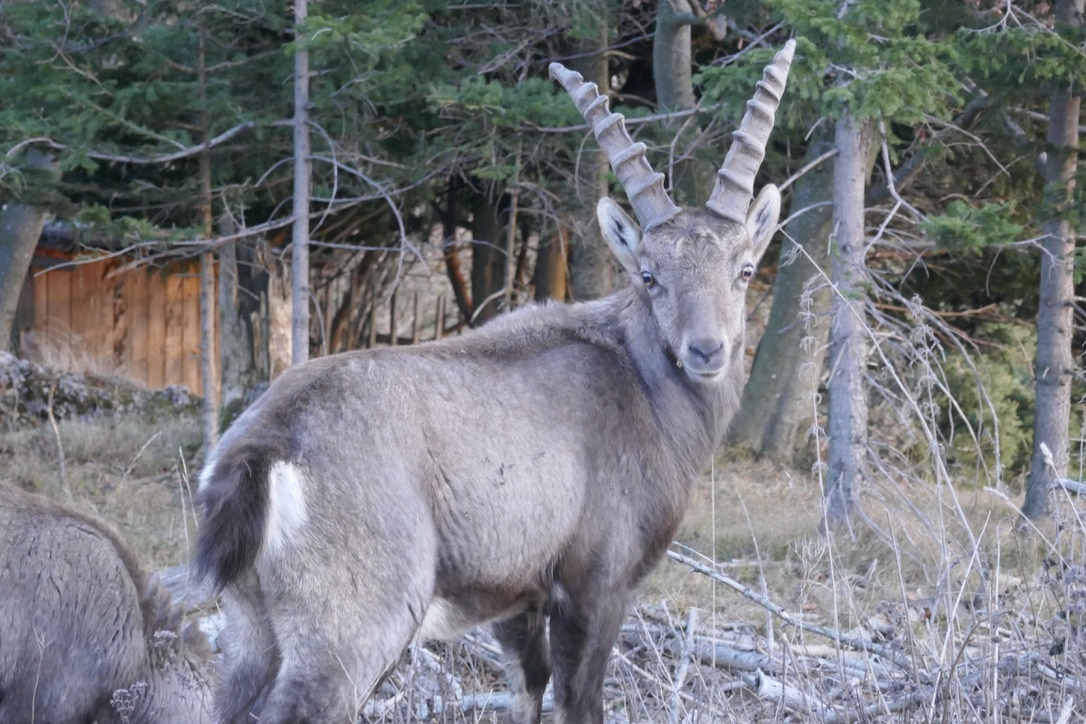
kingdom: Animalia
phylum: Chordata
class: Mammalia
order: Artiodactyla
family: Bovidae
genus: Capra
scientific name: Capra ibex
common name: Alpine ibex
